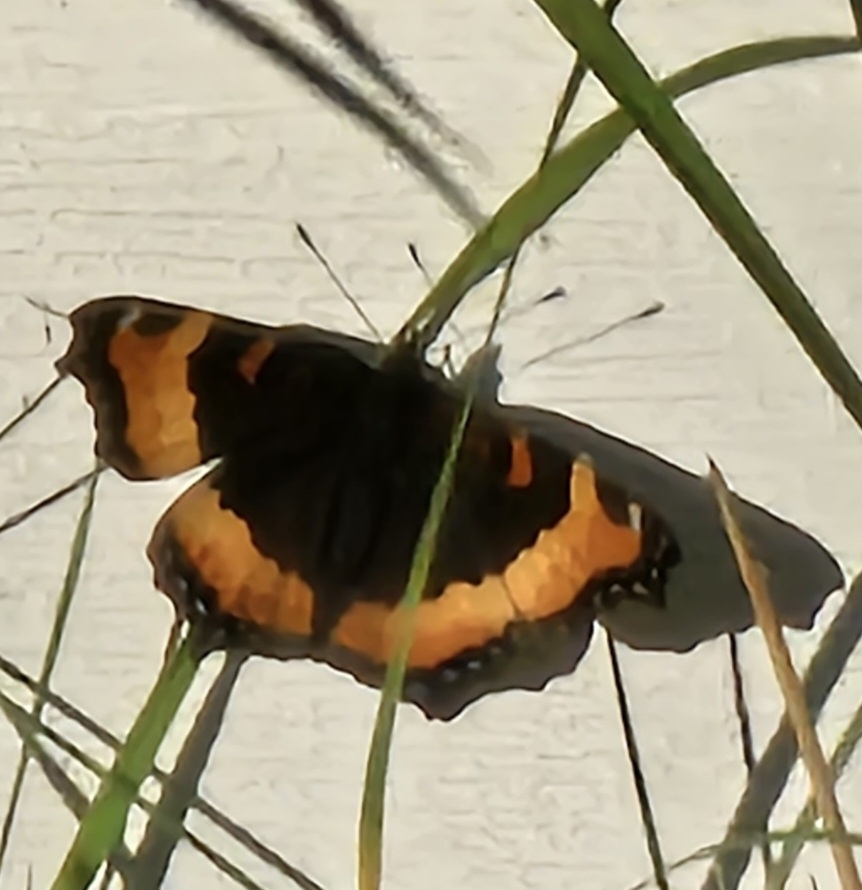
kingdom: Animalia
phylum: Arthropoda
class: Insecta
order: Lepidoptera
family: Nymphalidae
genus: Aglais
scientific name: Aglais milberti
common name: Milbert's tortoiseshell
